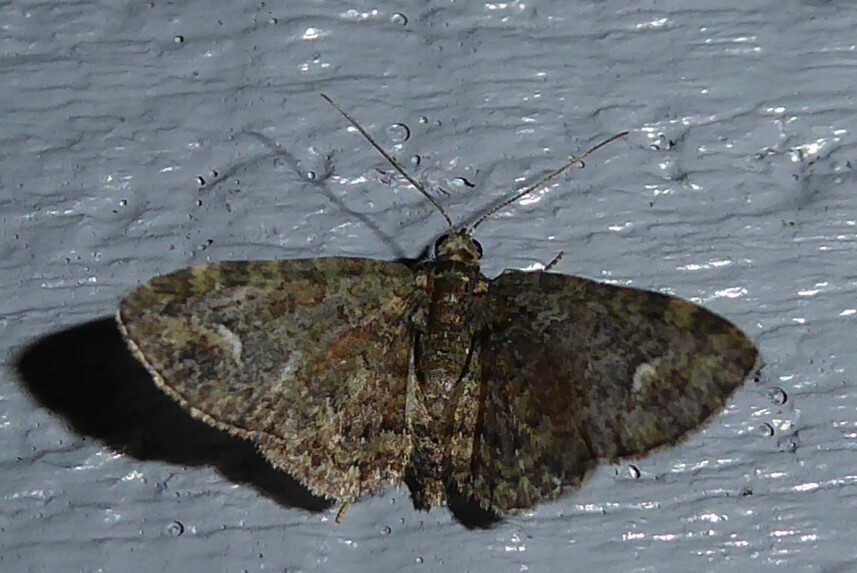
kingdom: Animalia
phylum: Arthropoda
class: Insecta
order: Lepidoptera
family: Geometridae
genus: Pasiphilodes
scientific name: Pasiphilodes testulata
